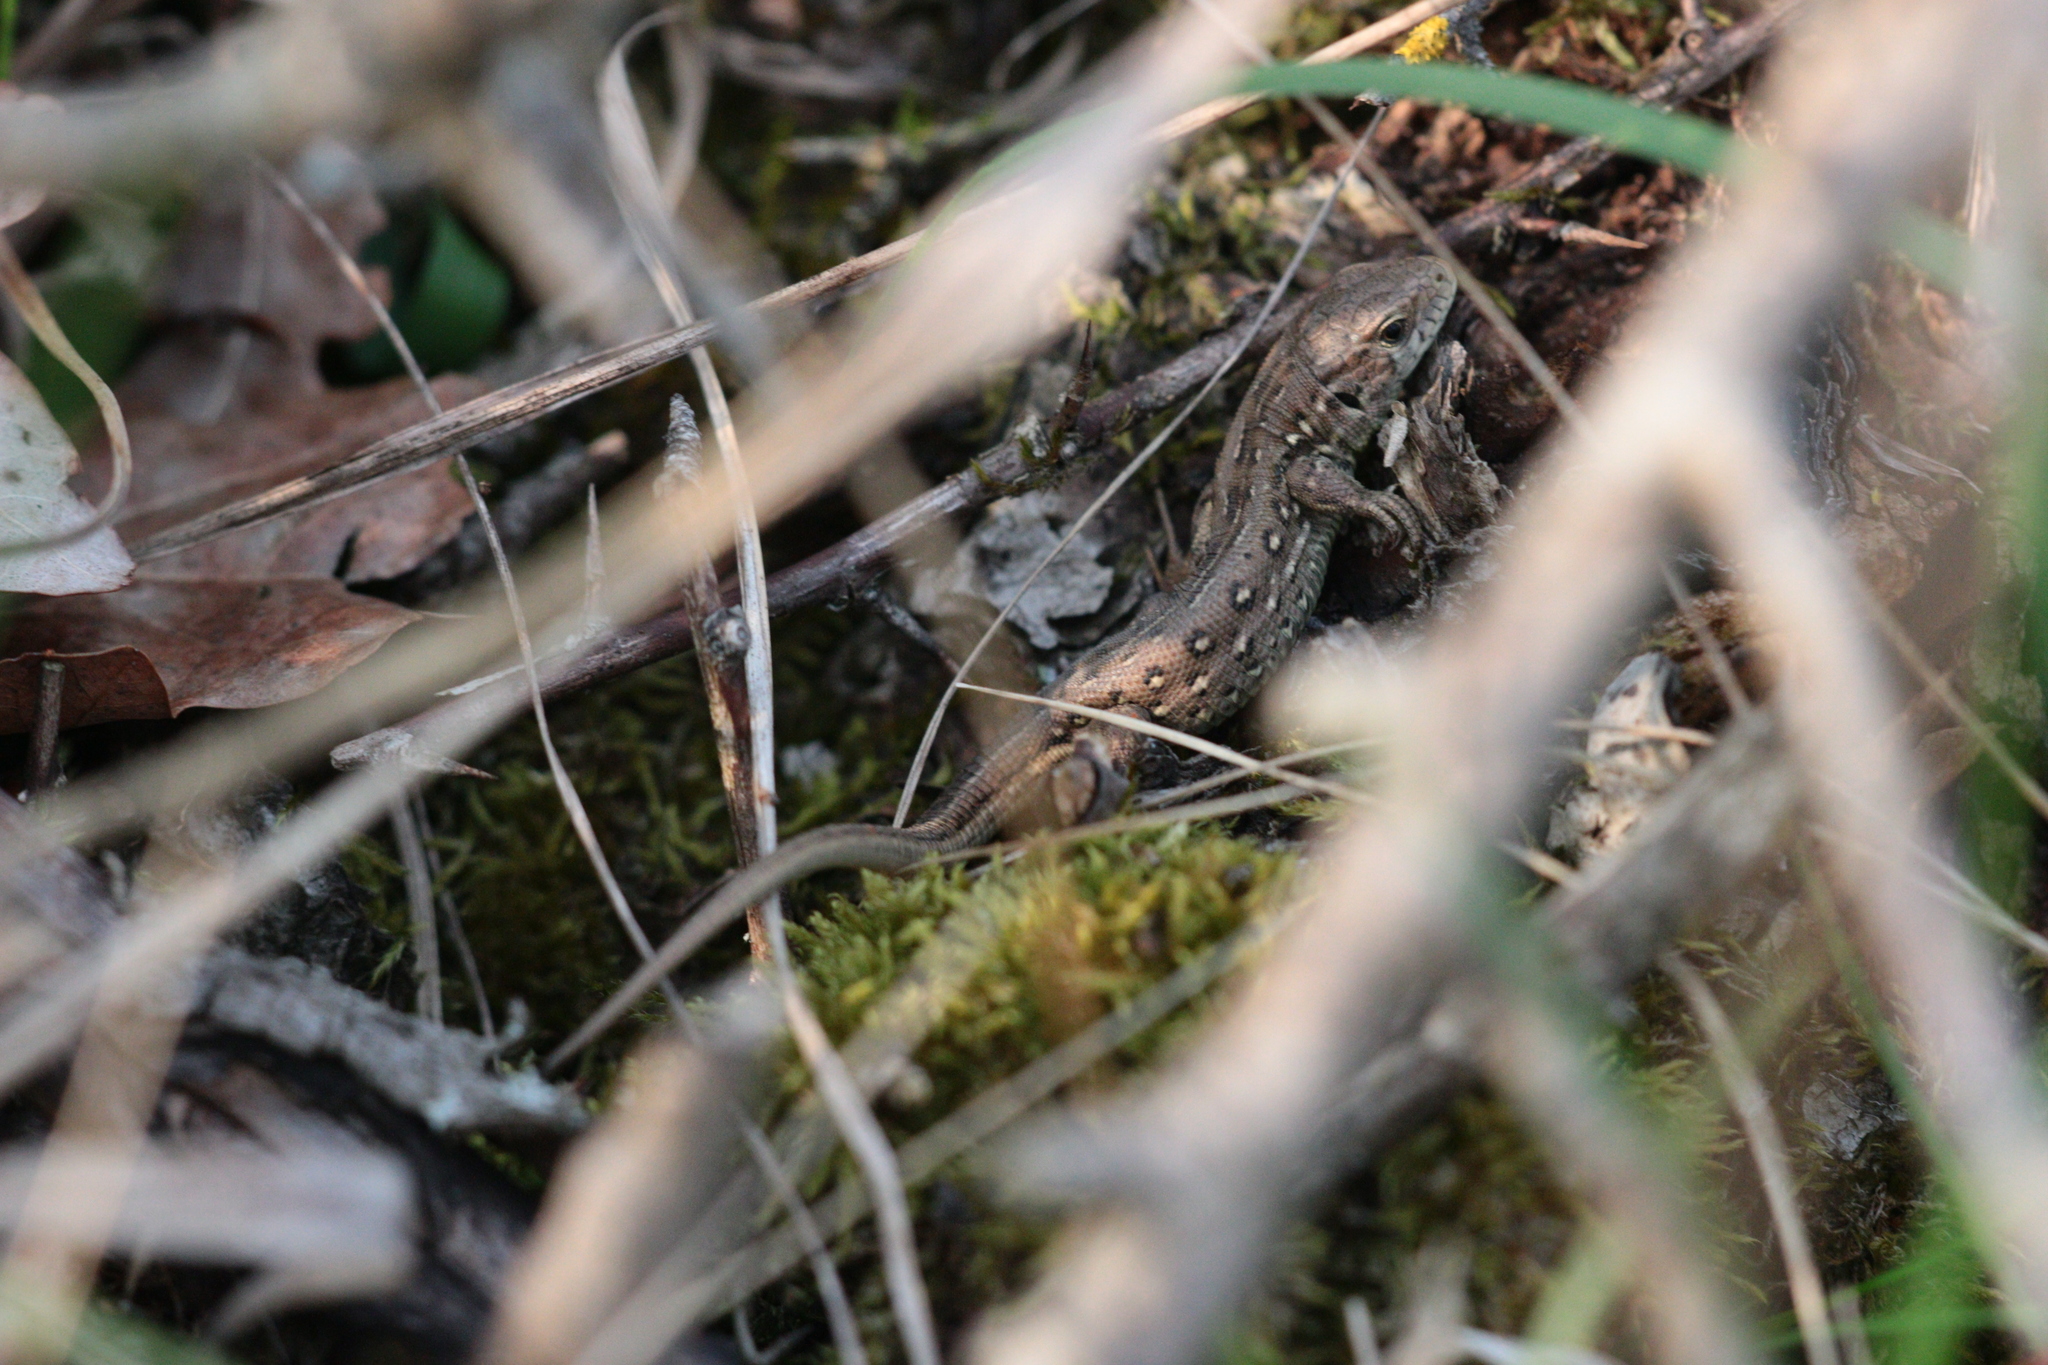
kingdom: Animalia
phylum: Chordata
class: Squamata
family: Lacertidae
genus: Lacerta
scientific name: Lacerta agilis
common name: Sand lizard
